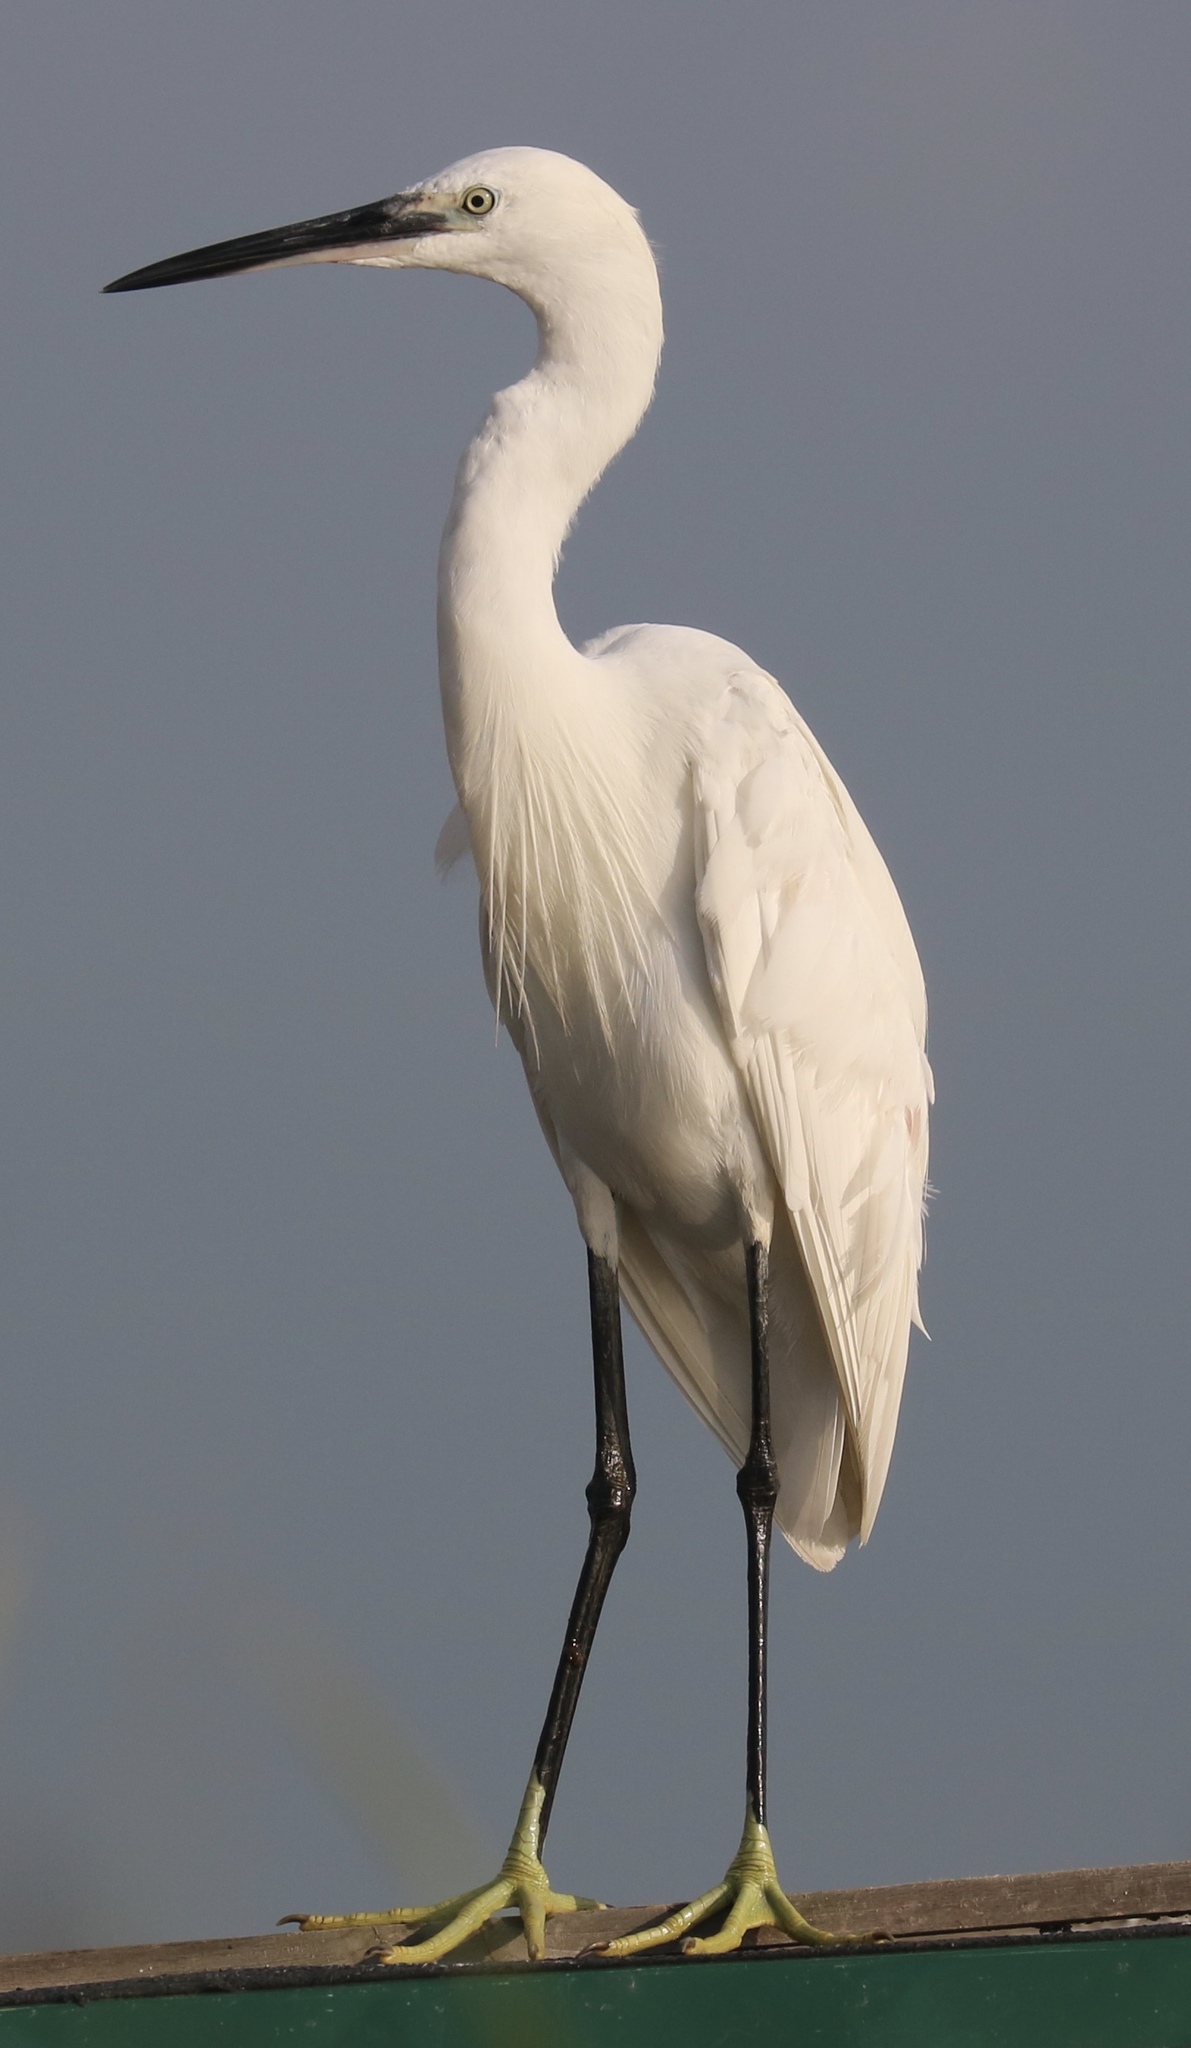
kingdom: Animalia
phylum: Chordata
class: Aves
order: Pelecaniformes
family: Ardeidae
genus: Egretta
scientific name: Egretta garzetta
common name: Little egret
